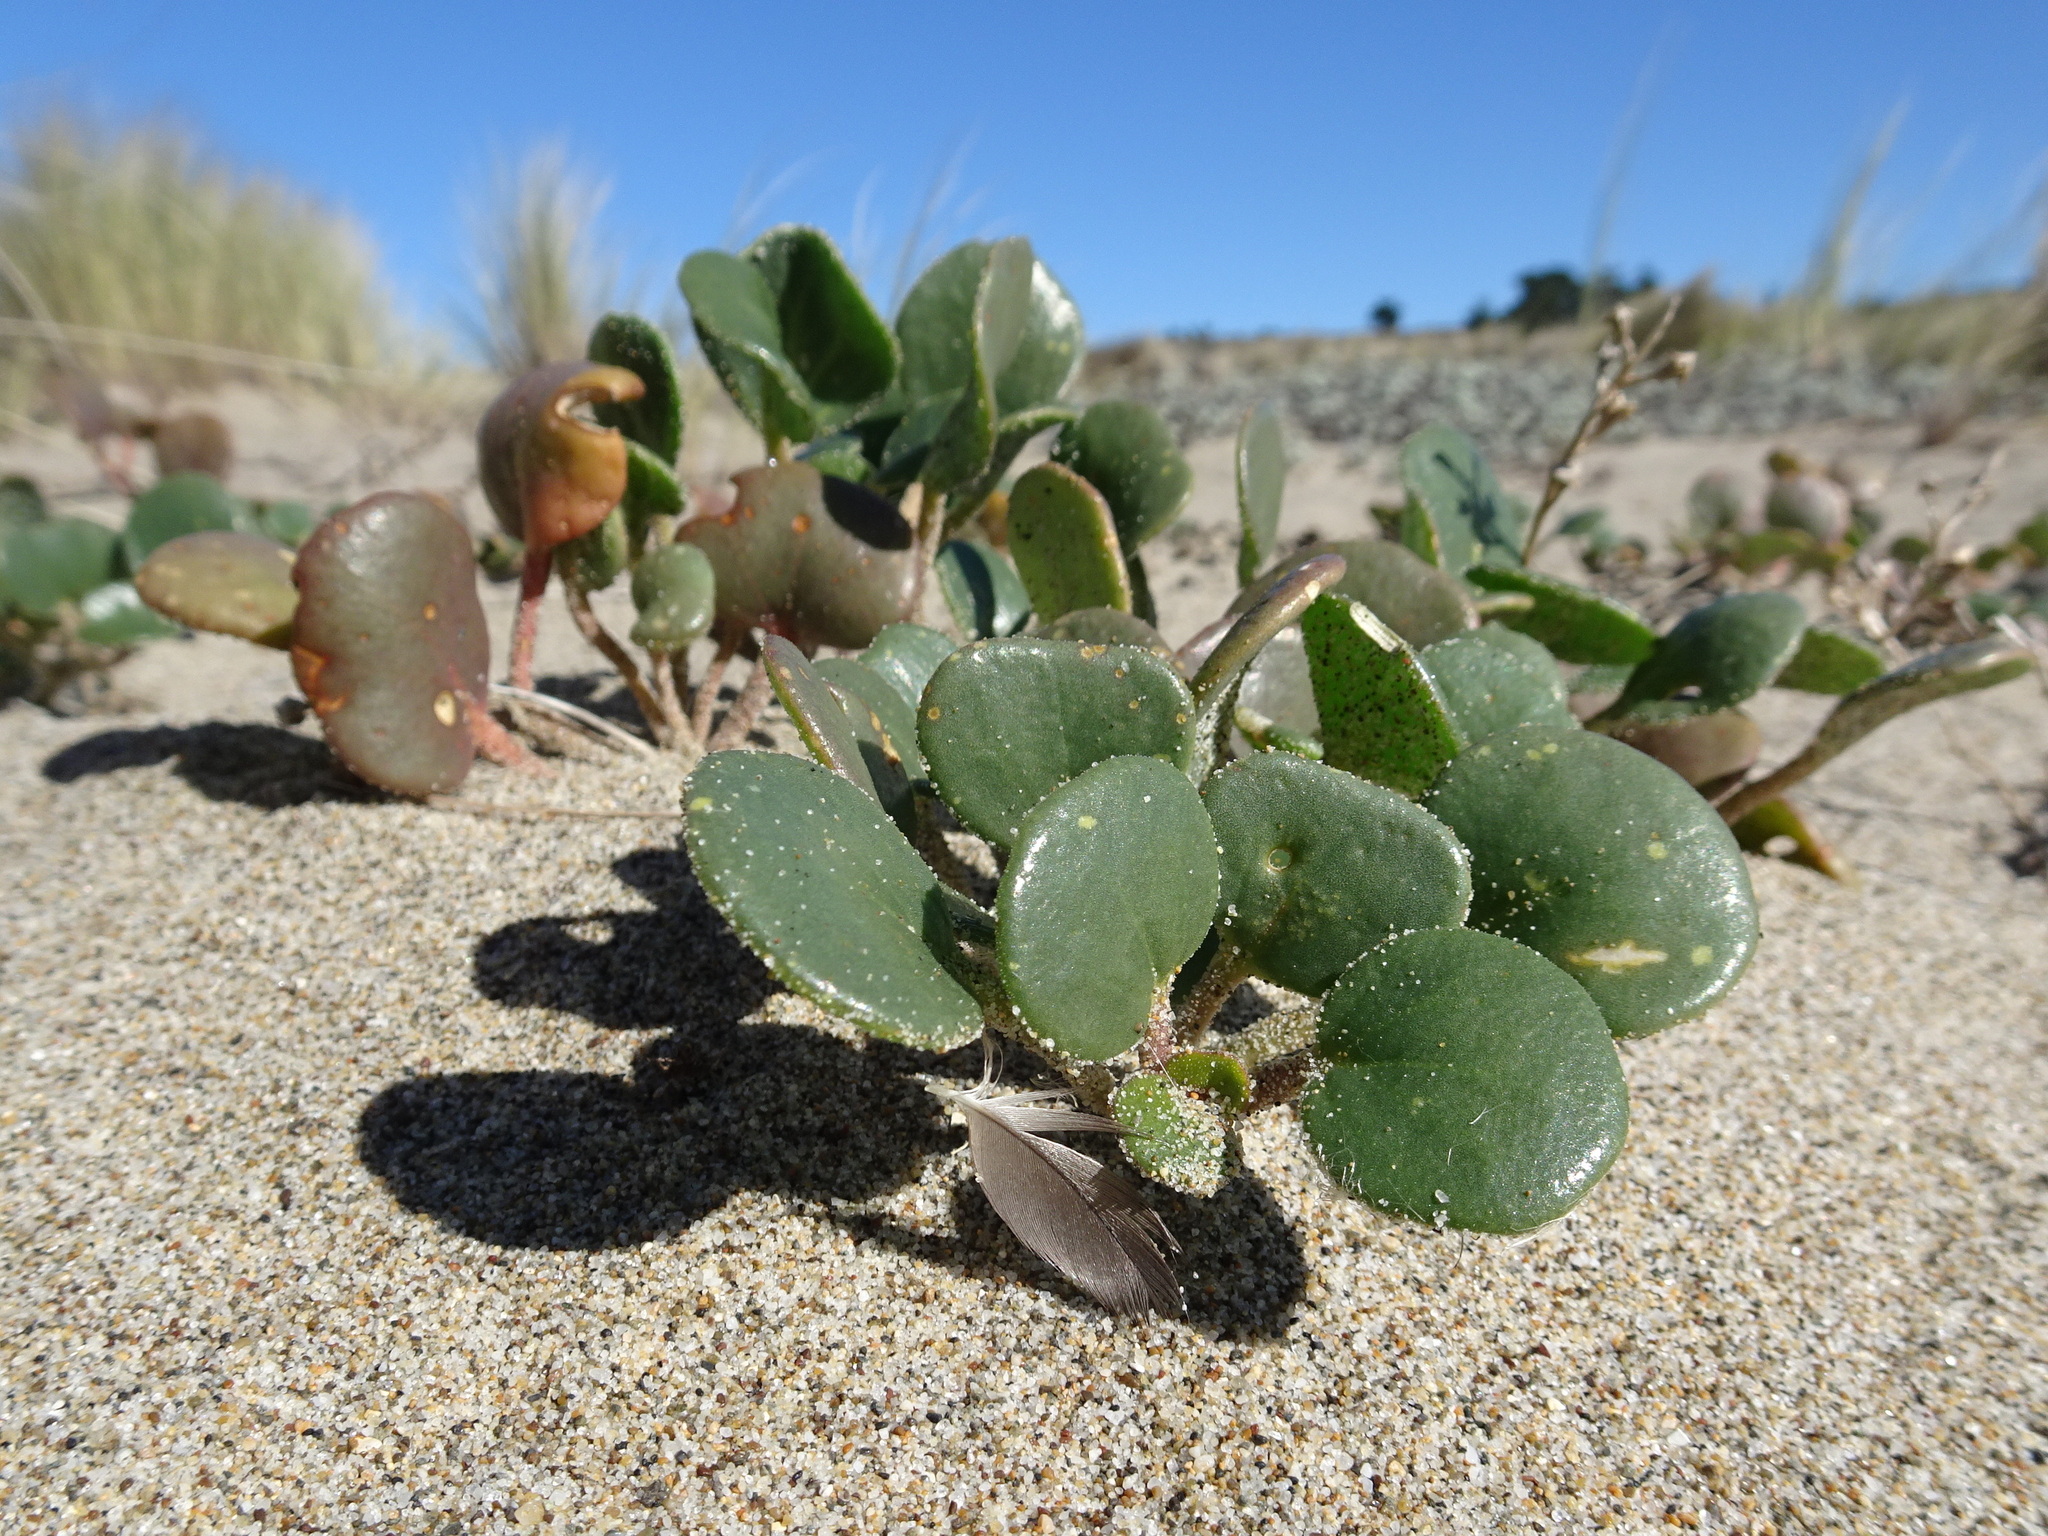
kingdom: Plantae
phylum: Tracheophyta
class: Magnoliopsida
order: Caryophyllales
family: Nyctaginaceae
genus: Abronia
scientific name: Abronia latifolia
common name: Yellow sand-verbena
